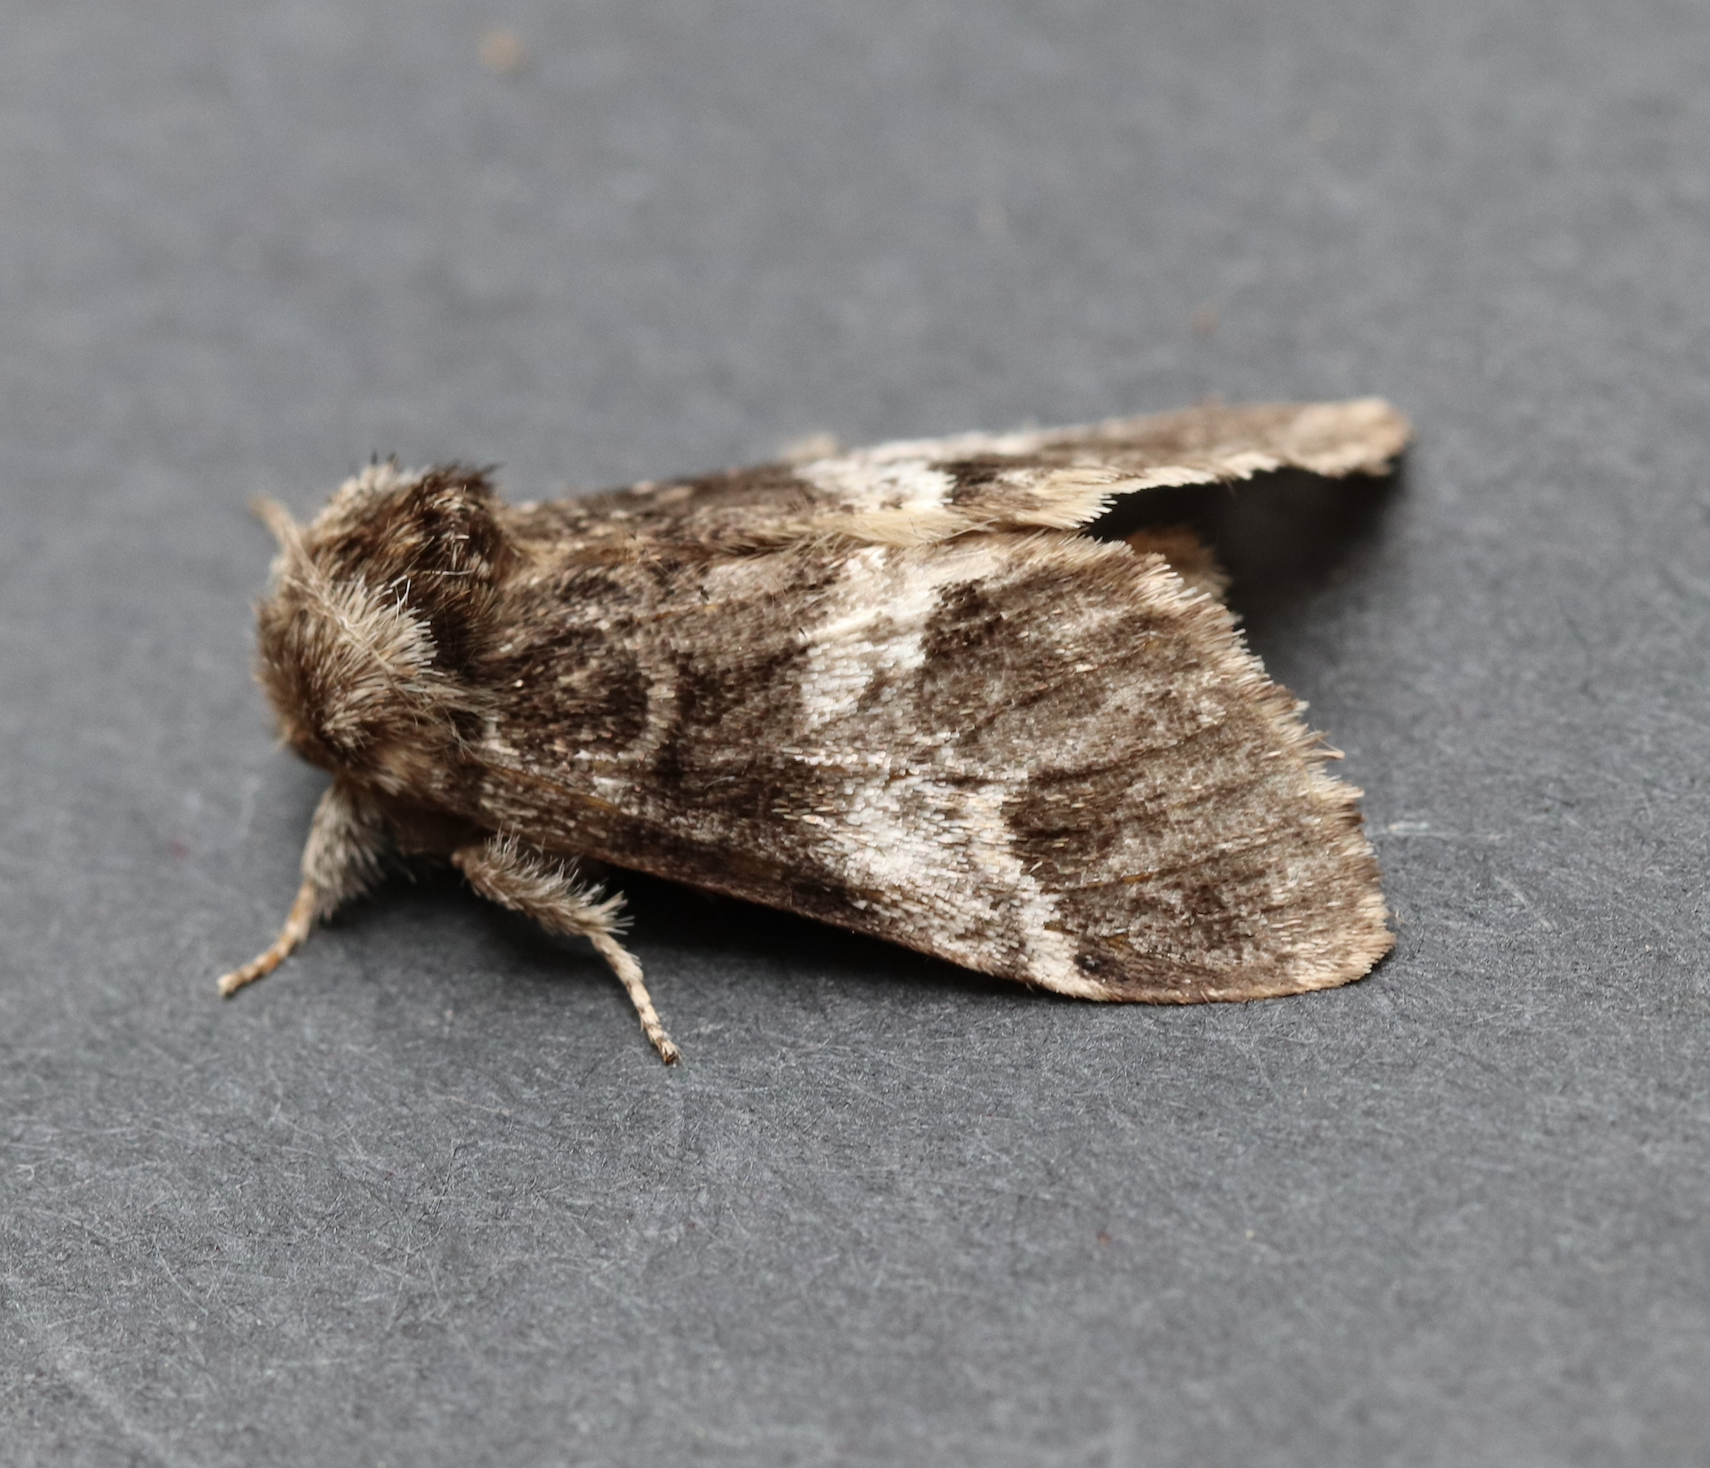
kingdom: Animalia
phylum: Arthropoda
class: Insecta
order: Lepidoptera
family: Notodontidae
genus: Drymonia
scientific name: Drymonia dodonaea
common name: Marbled brown
